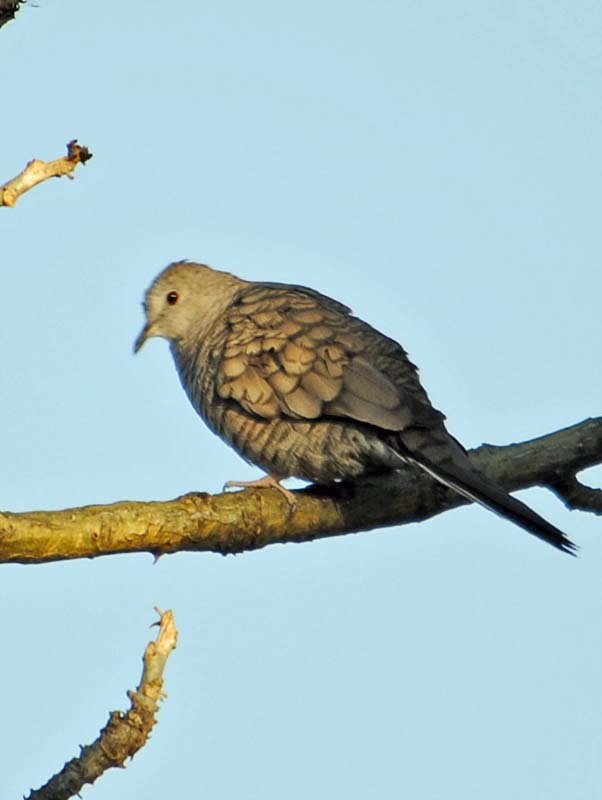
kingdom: Animalia
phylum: Chordata
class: Aves
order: Columbiformes
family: Columbidae
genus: Columbina
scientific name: Columbina inca
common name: Inca dove
